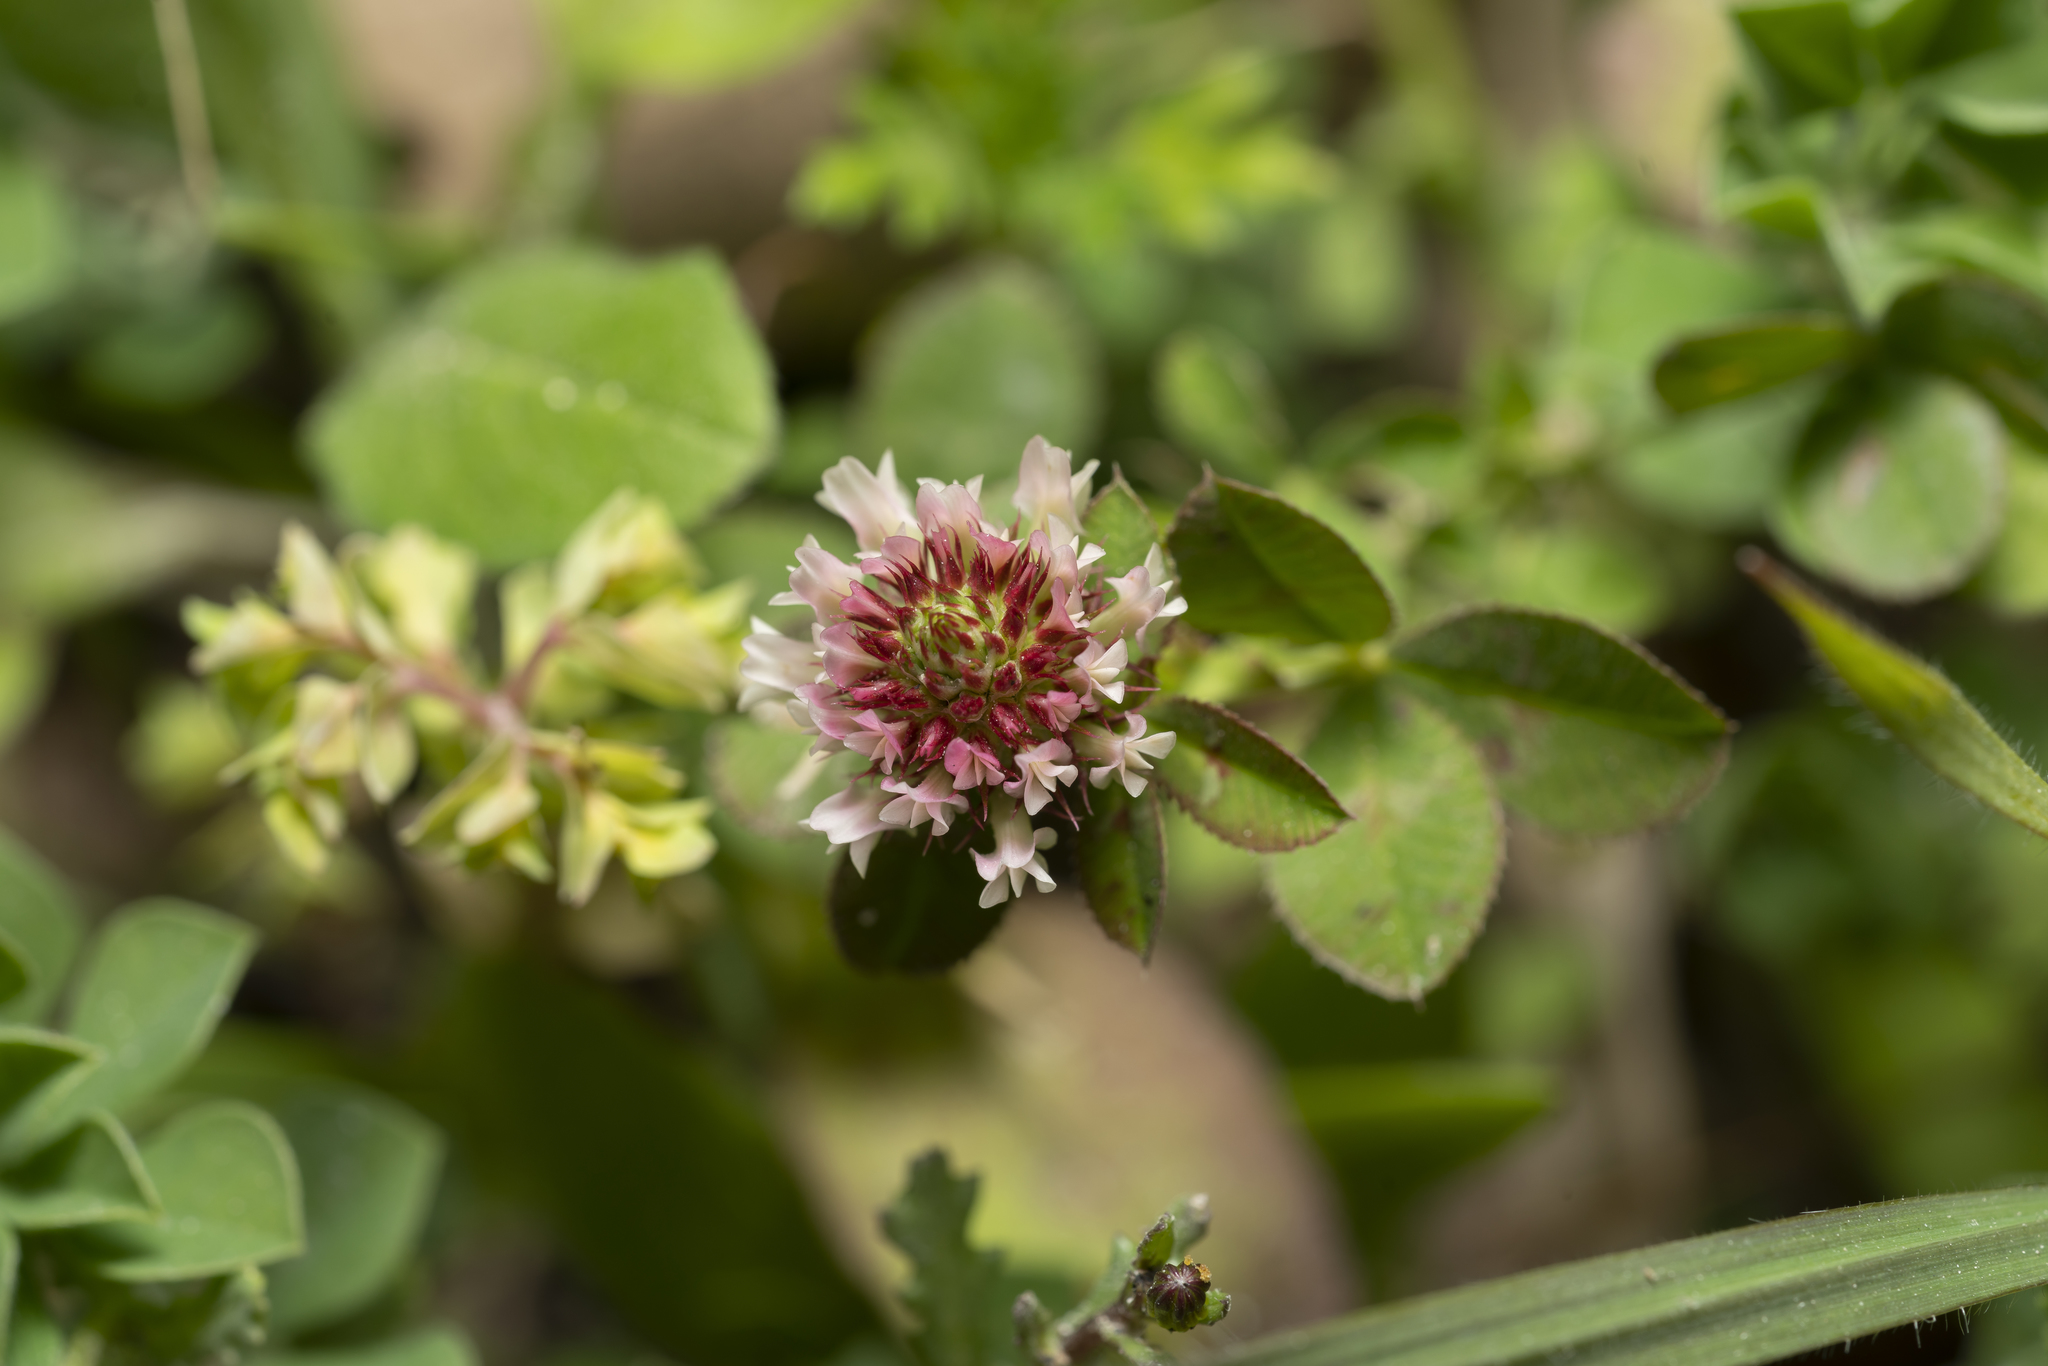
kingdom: Plantae
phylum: Tracheophyta
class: Magnoliopsida
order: Fabales
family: Fabaceae
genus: Trifolium
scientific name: Trifolium argutum
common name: Sharp-tooth clover
